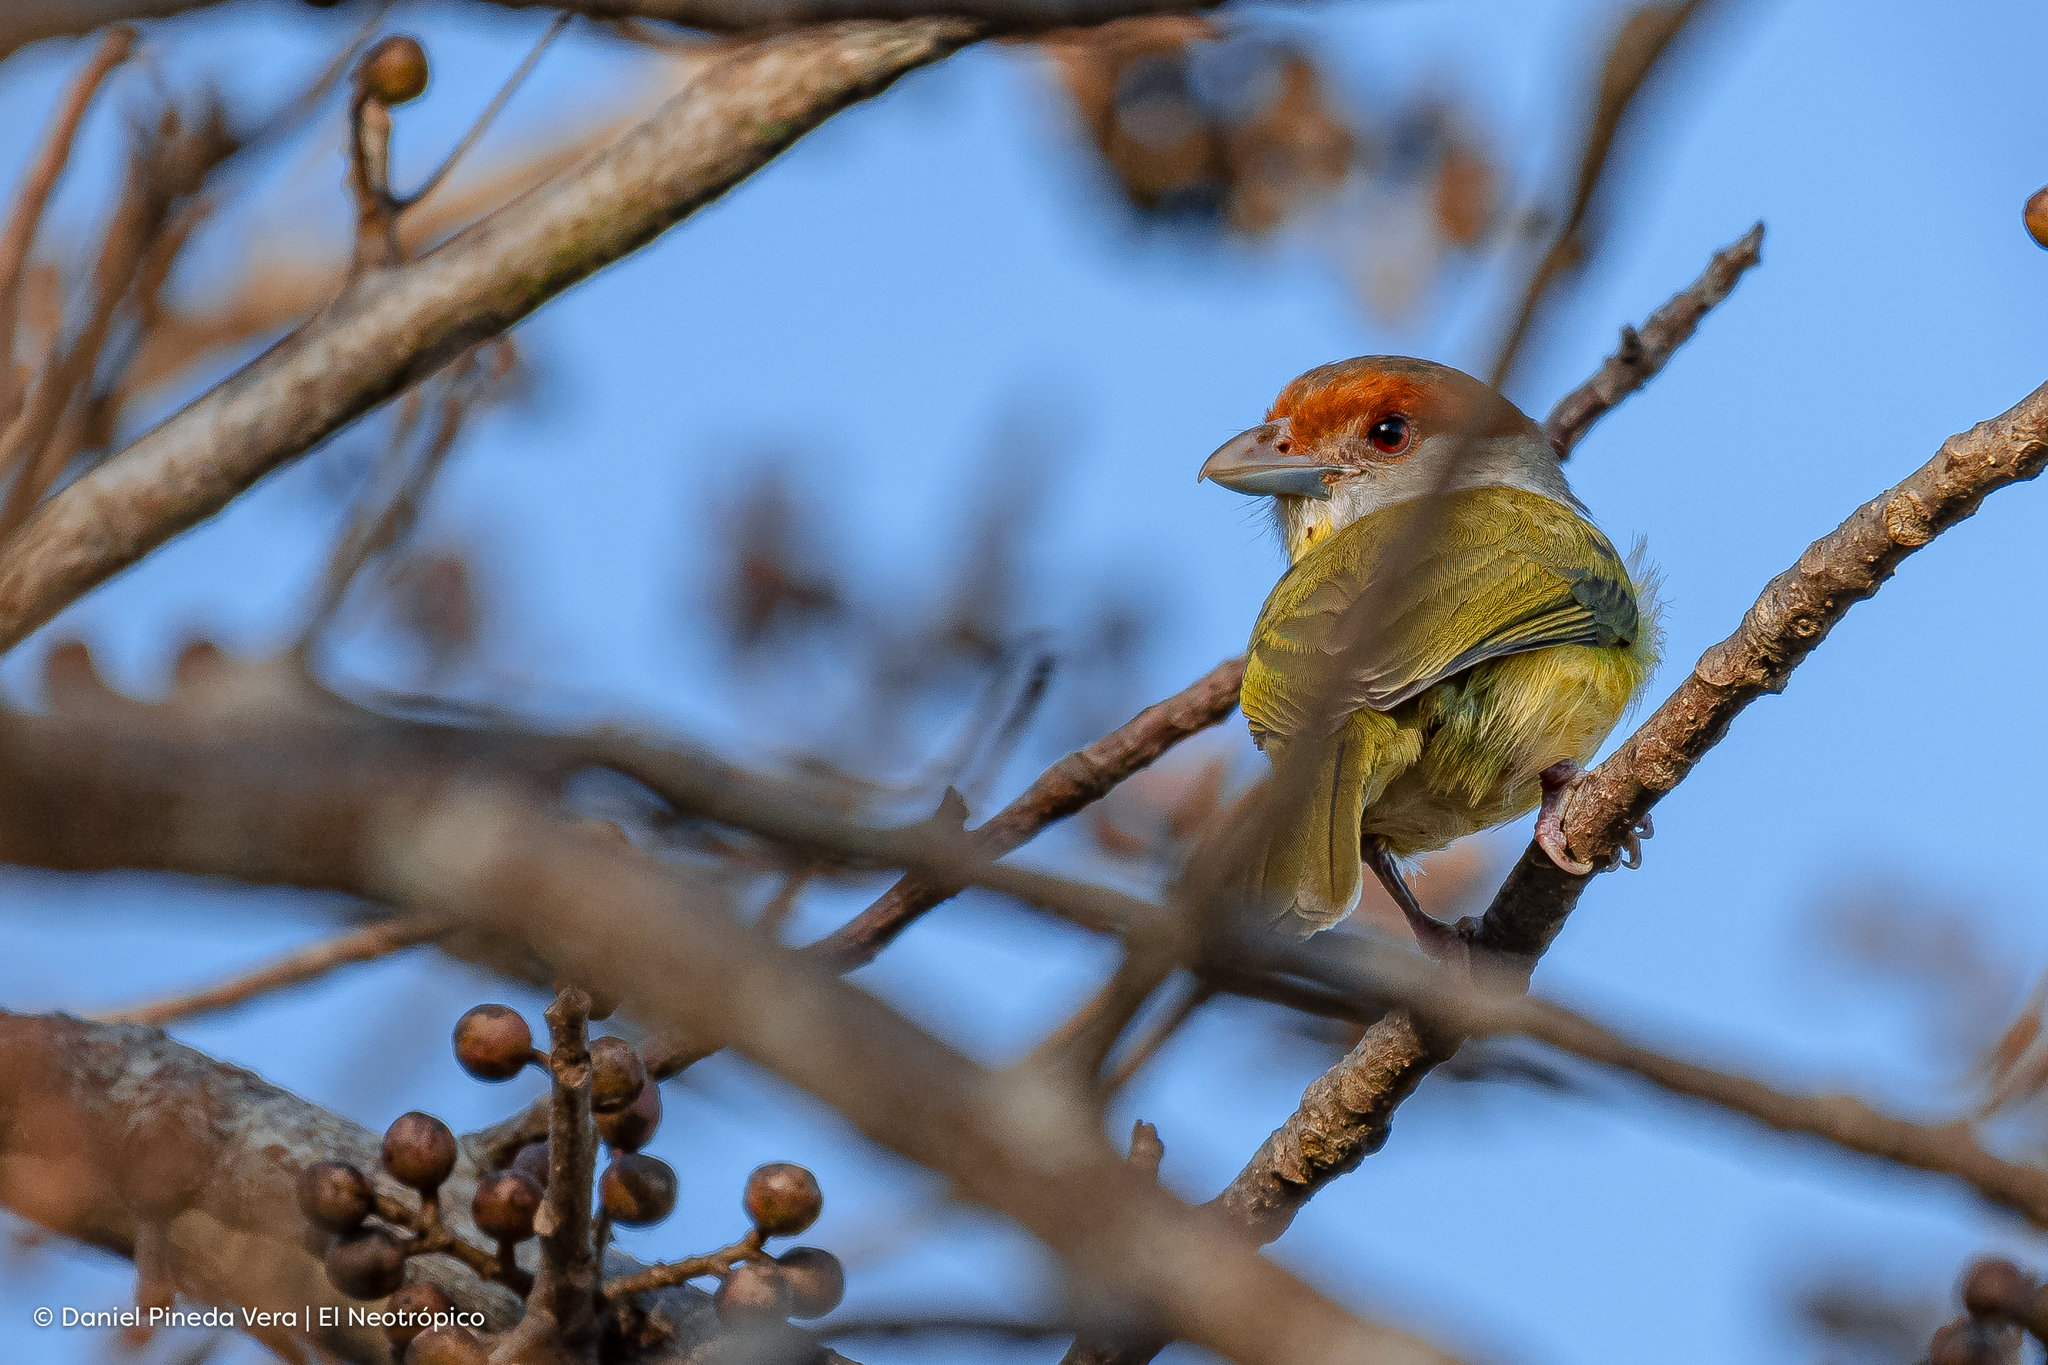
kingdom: Animalia
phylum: Chordata
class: Aves
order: Passeriformes
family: Vireonidae
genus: Cyclarhis
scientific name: Cyclarhis gujanensis
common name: Rufous-browed peppershrike
